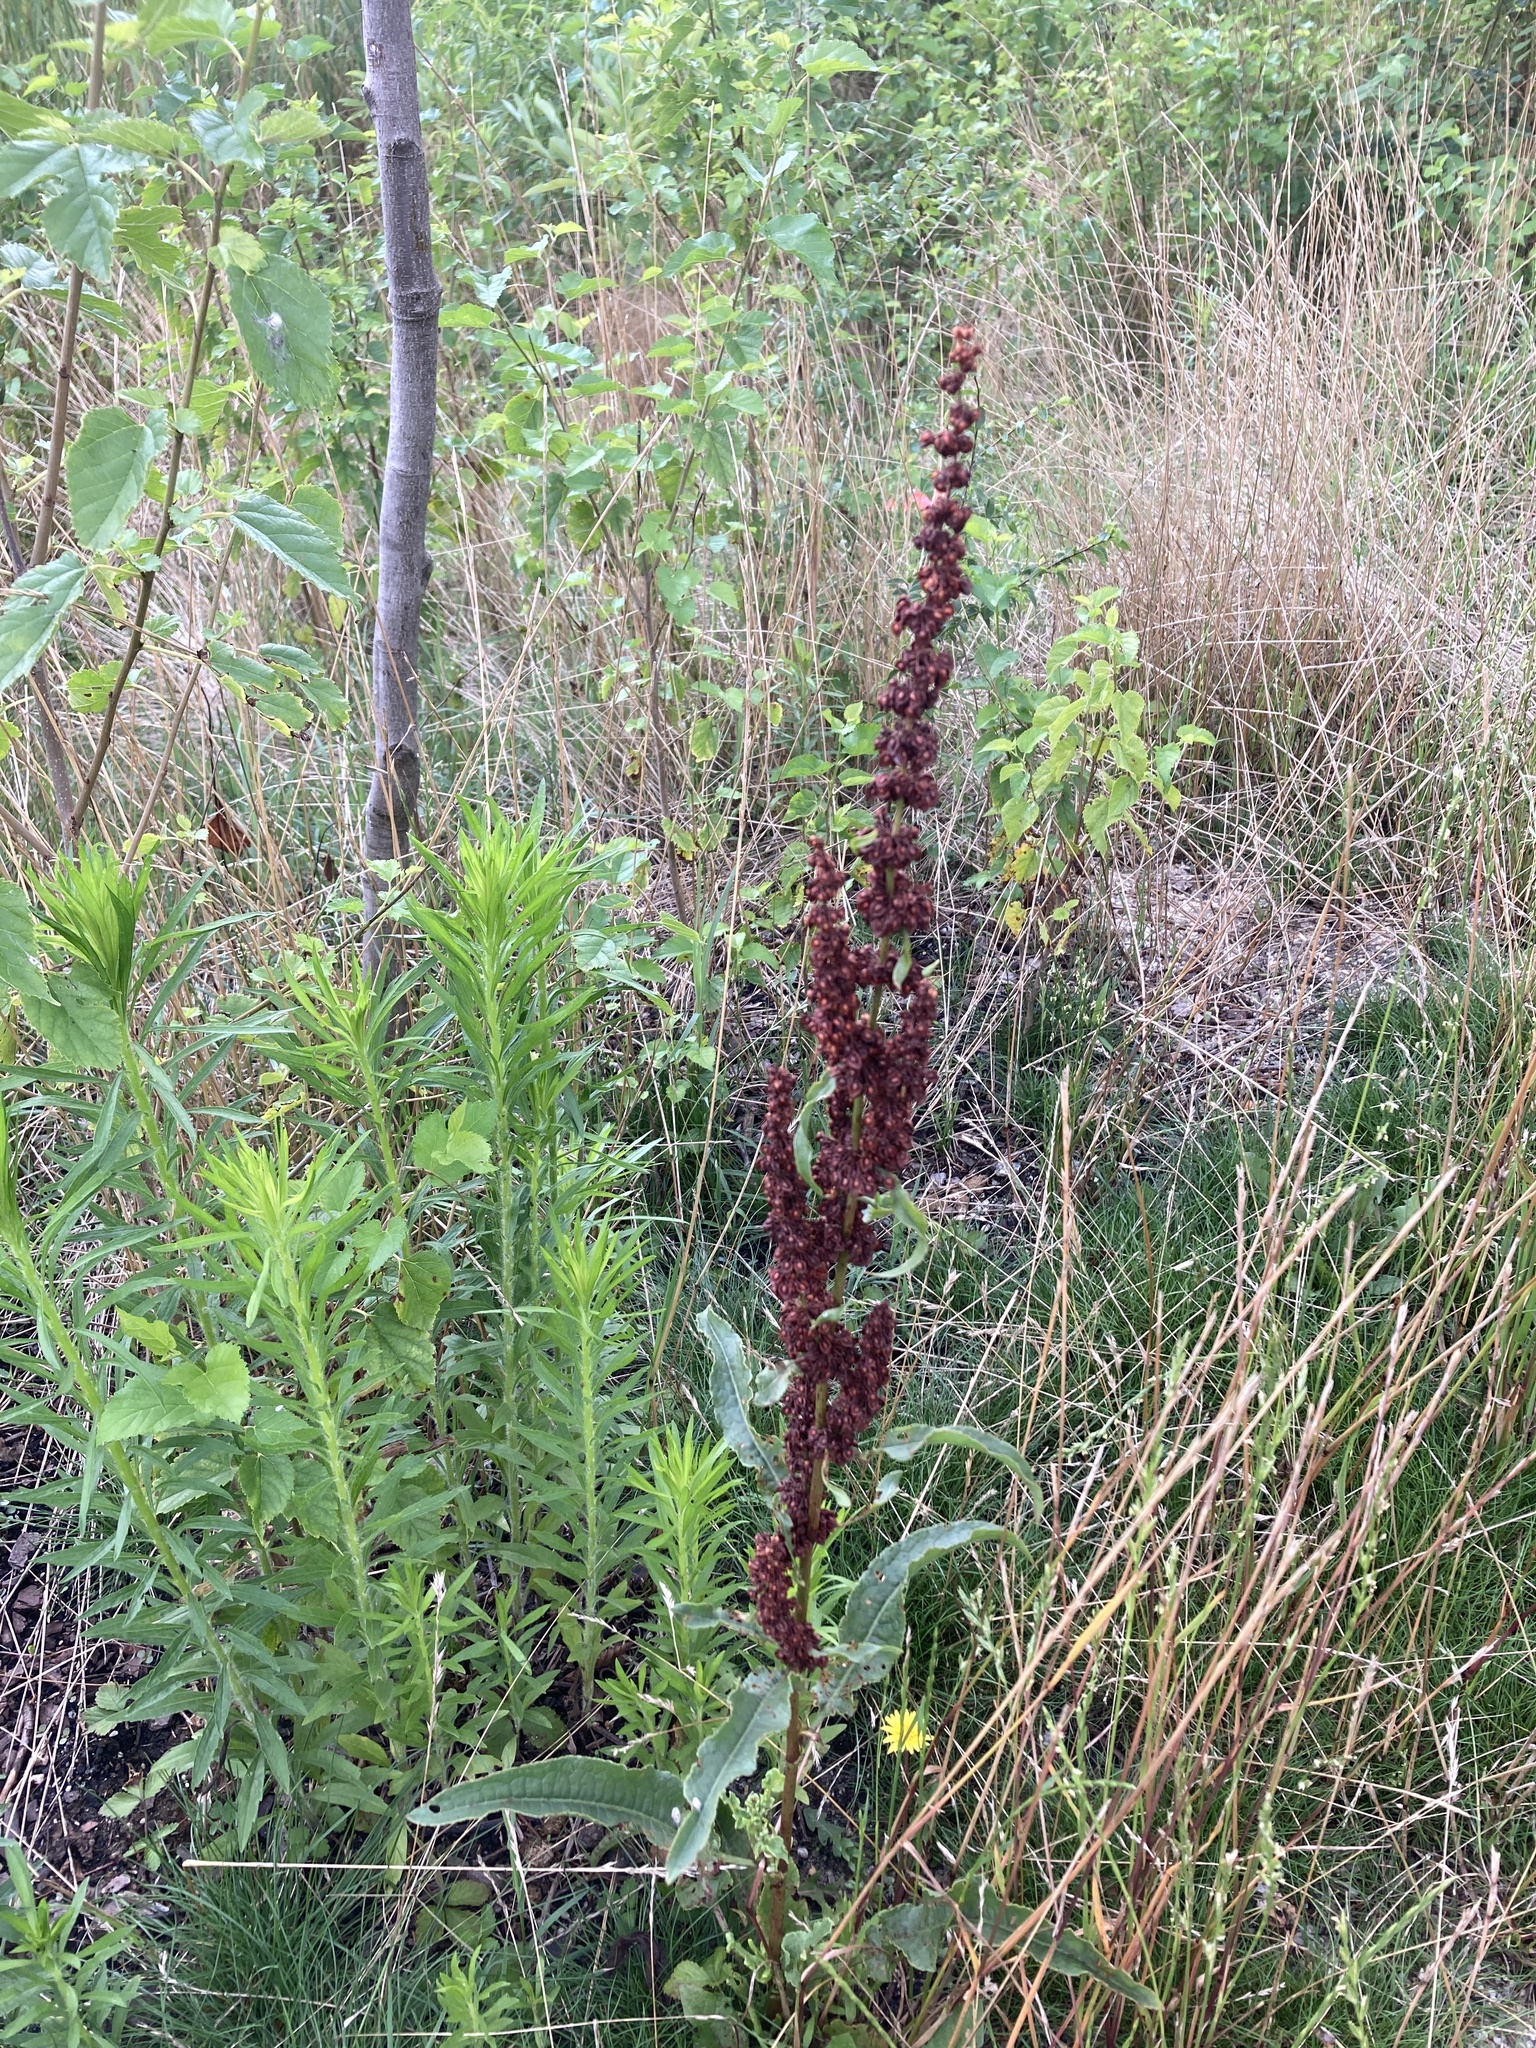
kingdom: Plantae
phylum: Tracheophyta
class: Magnoliopsida
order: Caryophyllales
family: Polygonaceae
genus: Rumex
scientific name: Rumex crispus
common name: Curled dock
